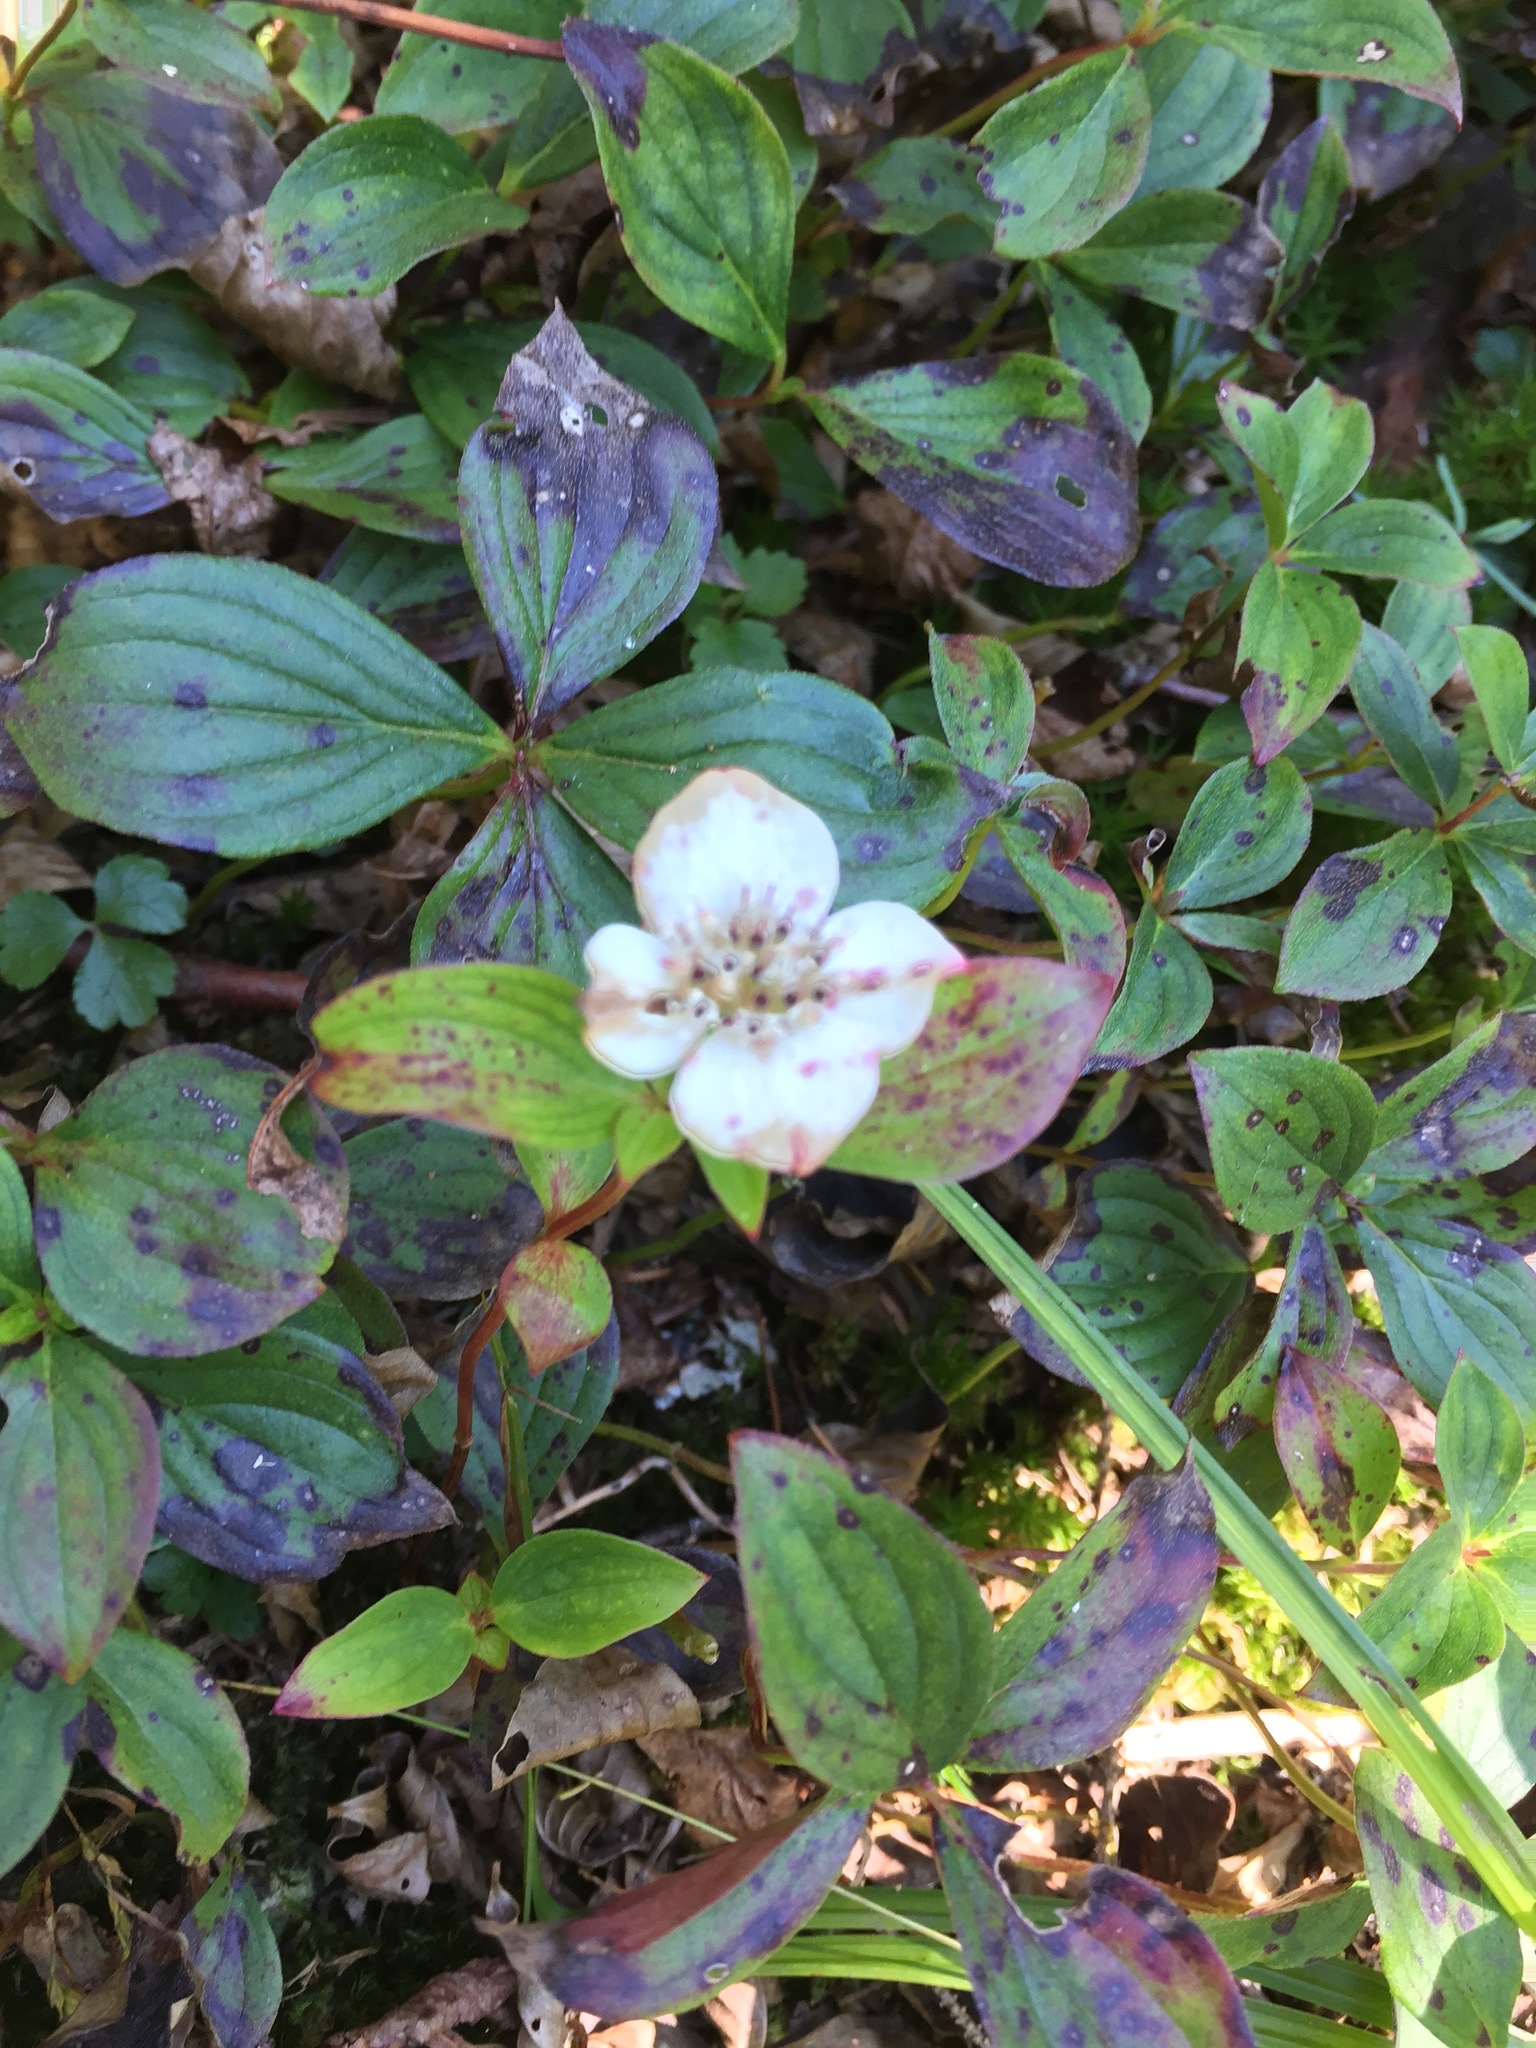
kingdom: Plantae
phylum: Tracheophyta
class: Magnoliopsida
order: Cornales
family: Cornaceae
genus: Cornus
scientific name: Cornus canadensis
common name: Creeping dogwood
